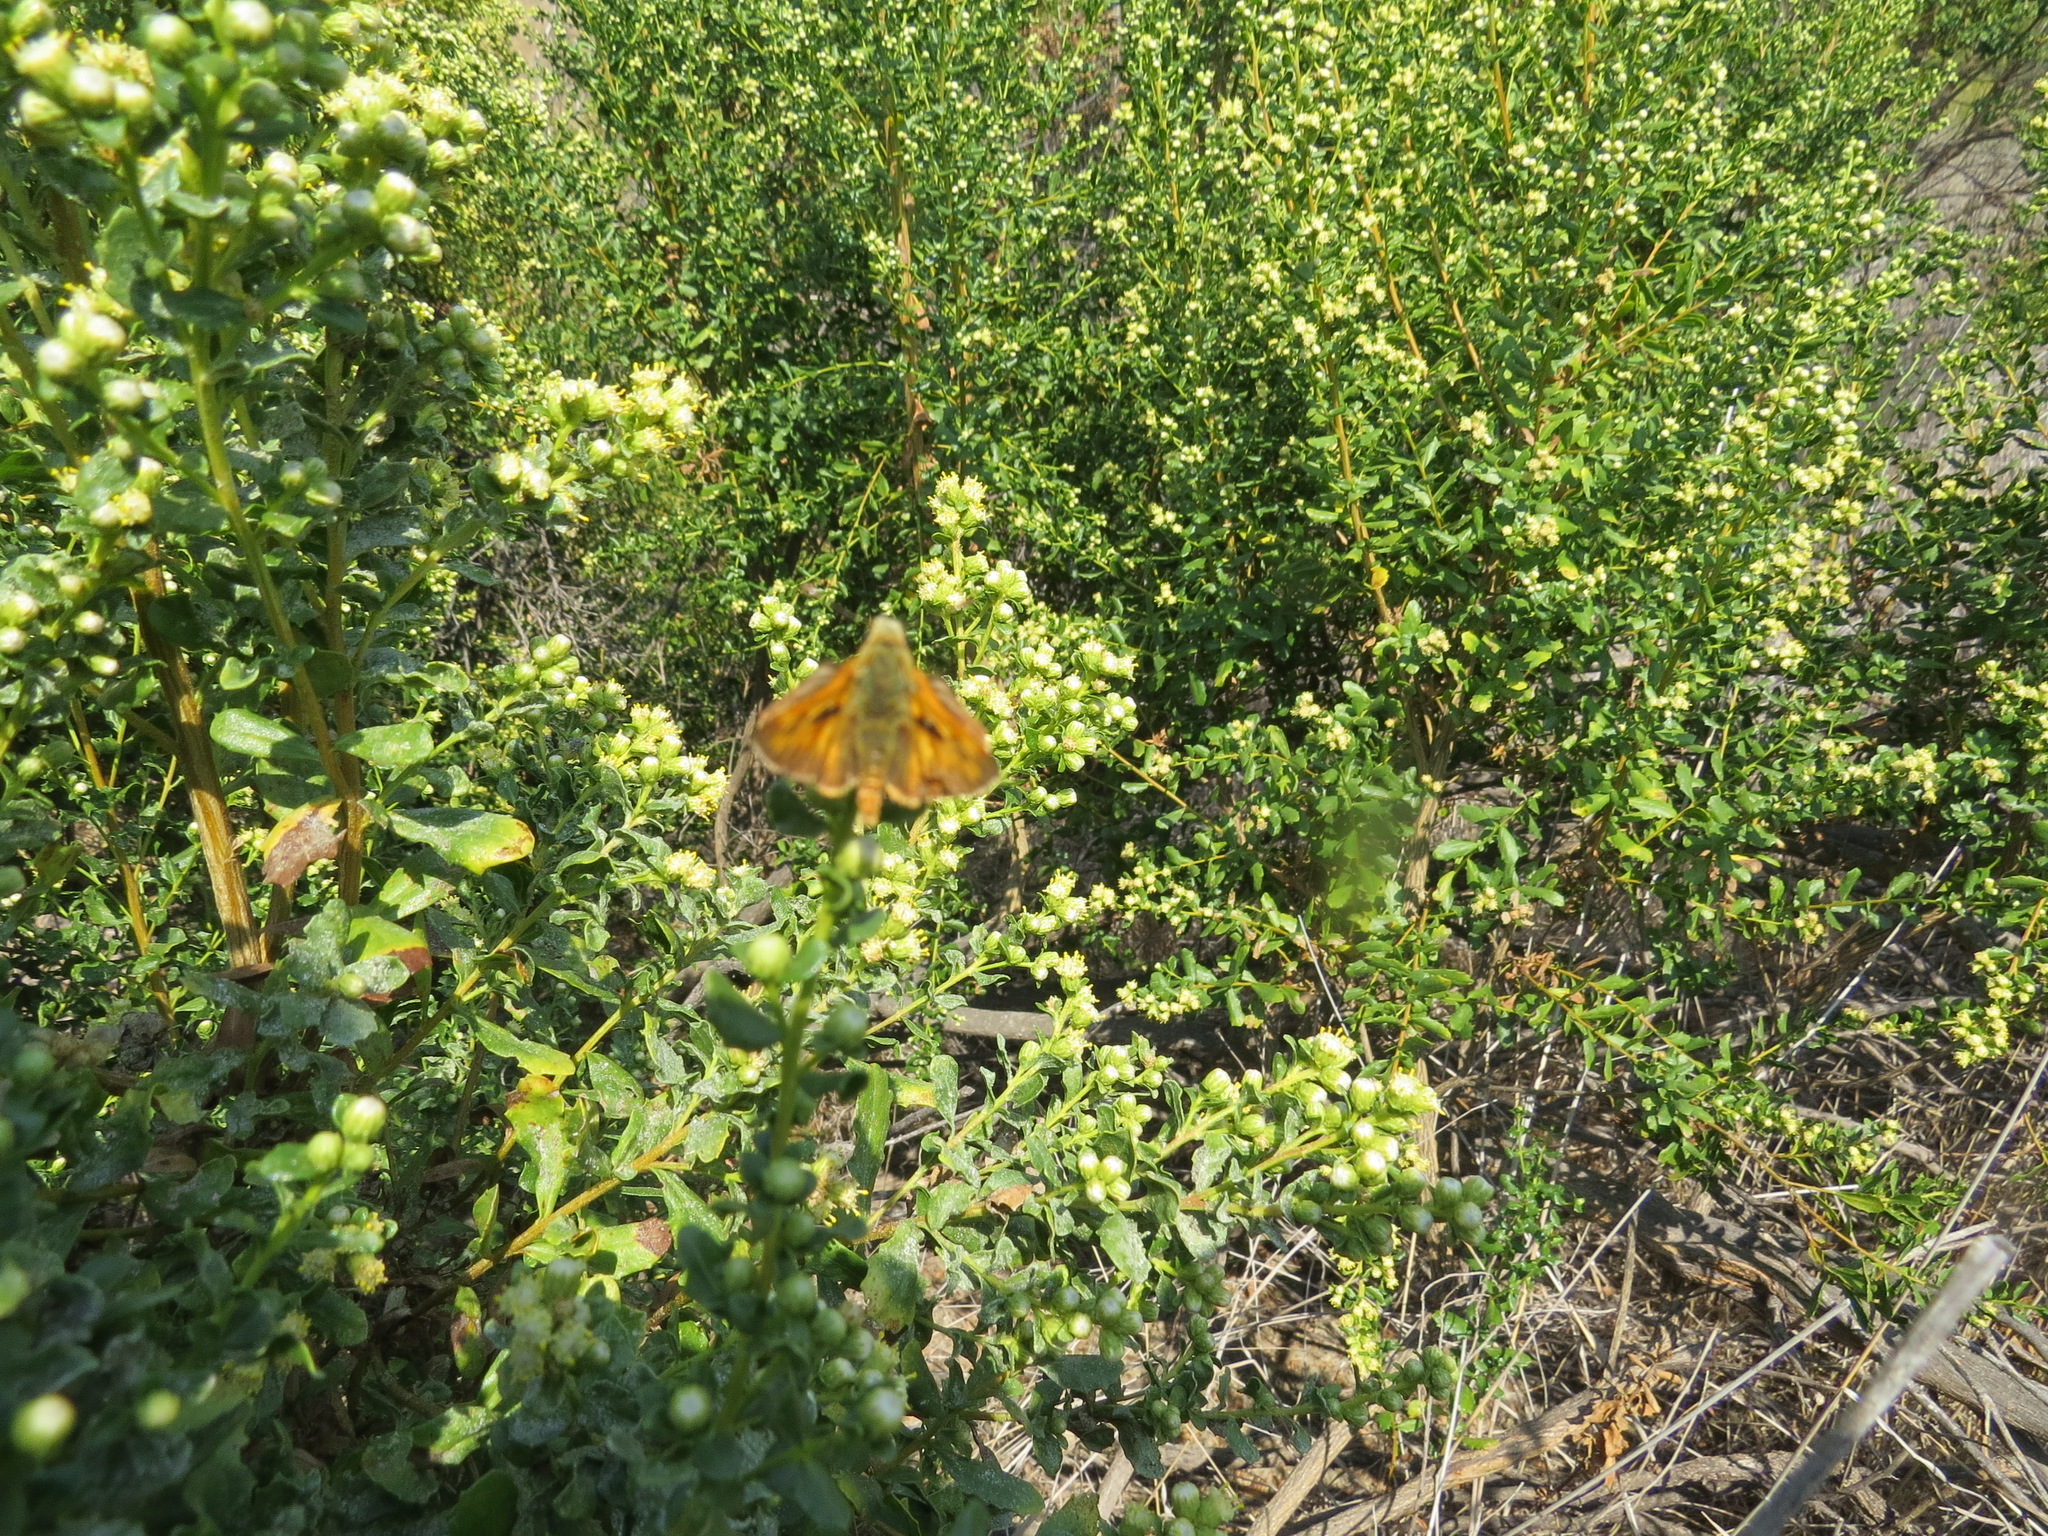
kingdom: Animalia
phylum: Arthropoda
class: Insecta
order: Lepidoptera
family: Hesperiidae
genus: Ochlodes
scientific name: Ochlodes sylvanoides
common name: Woodland skipper
